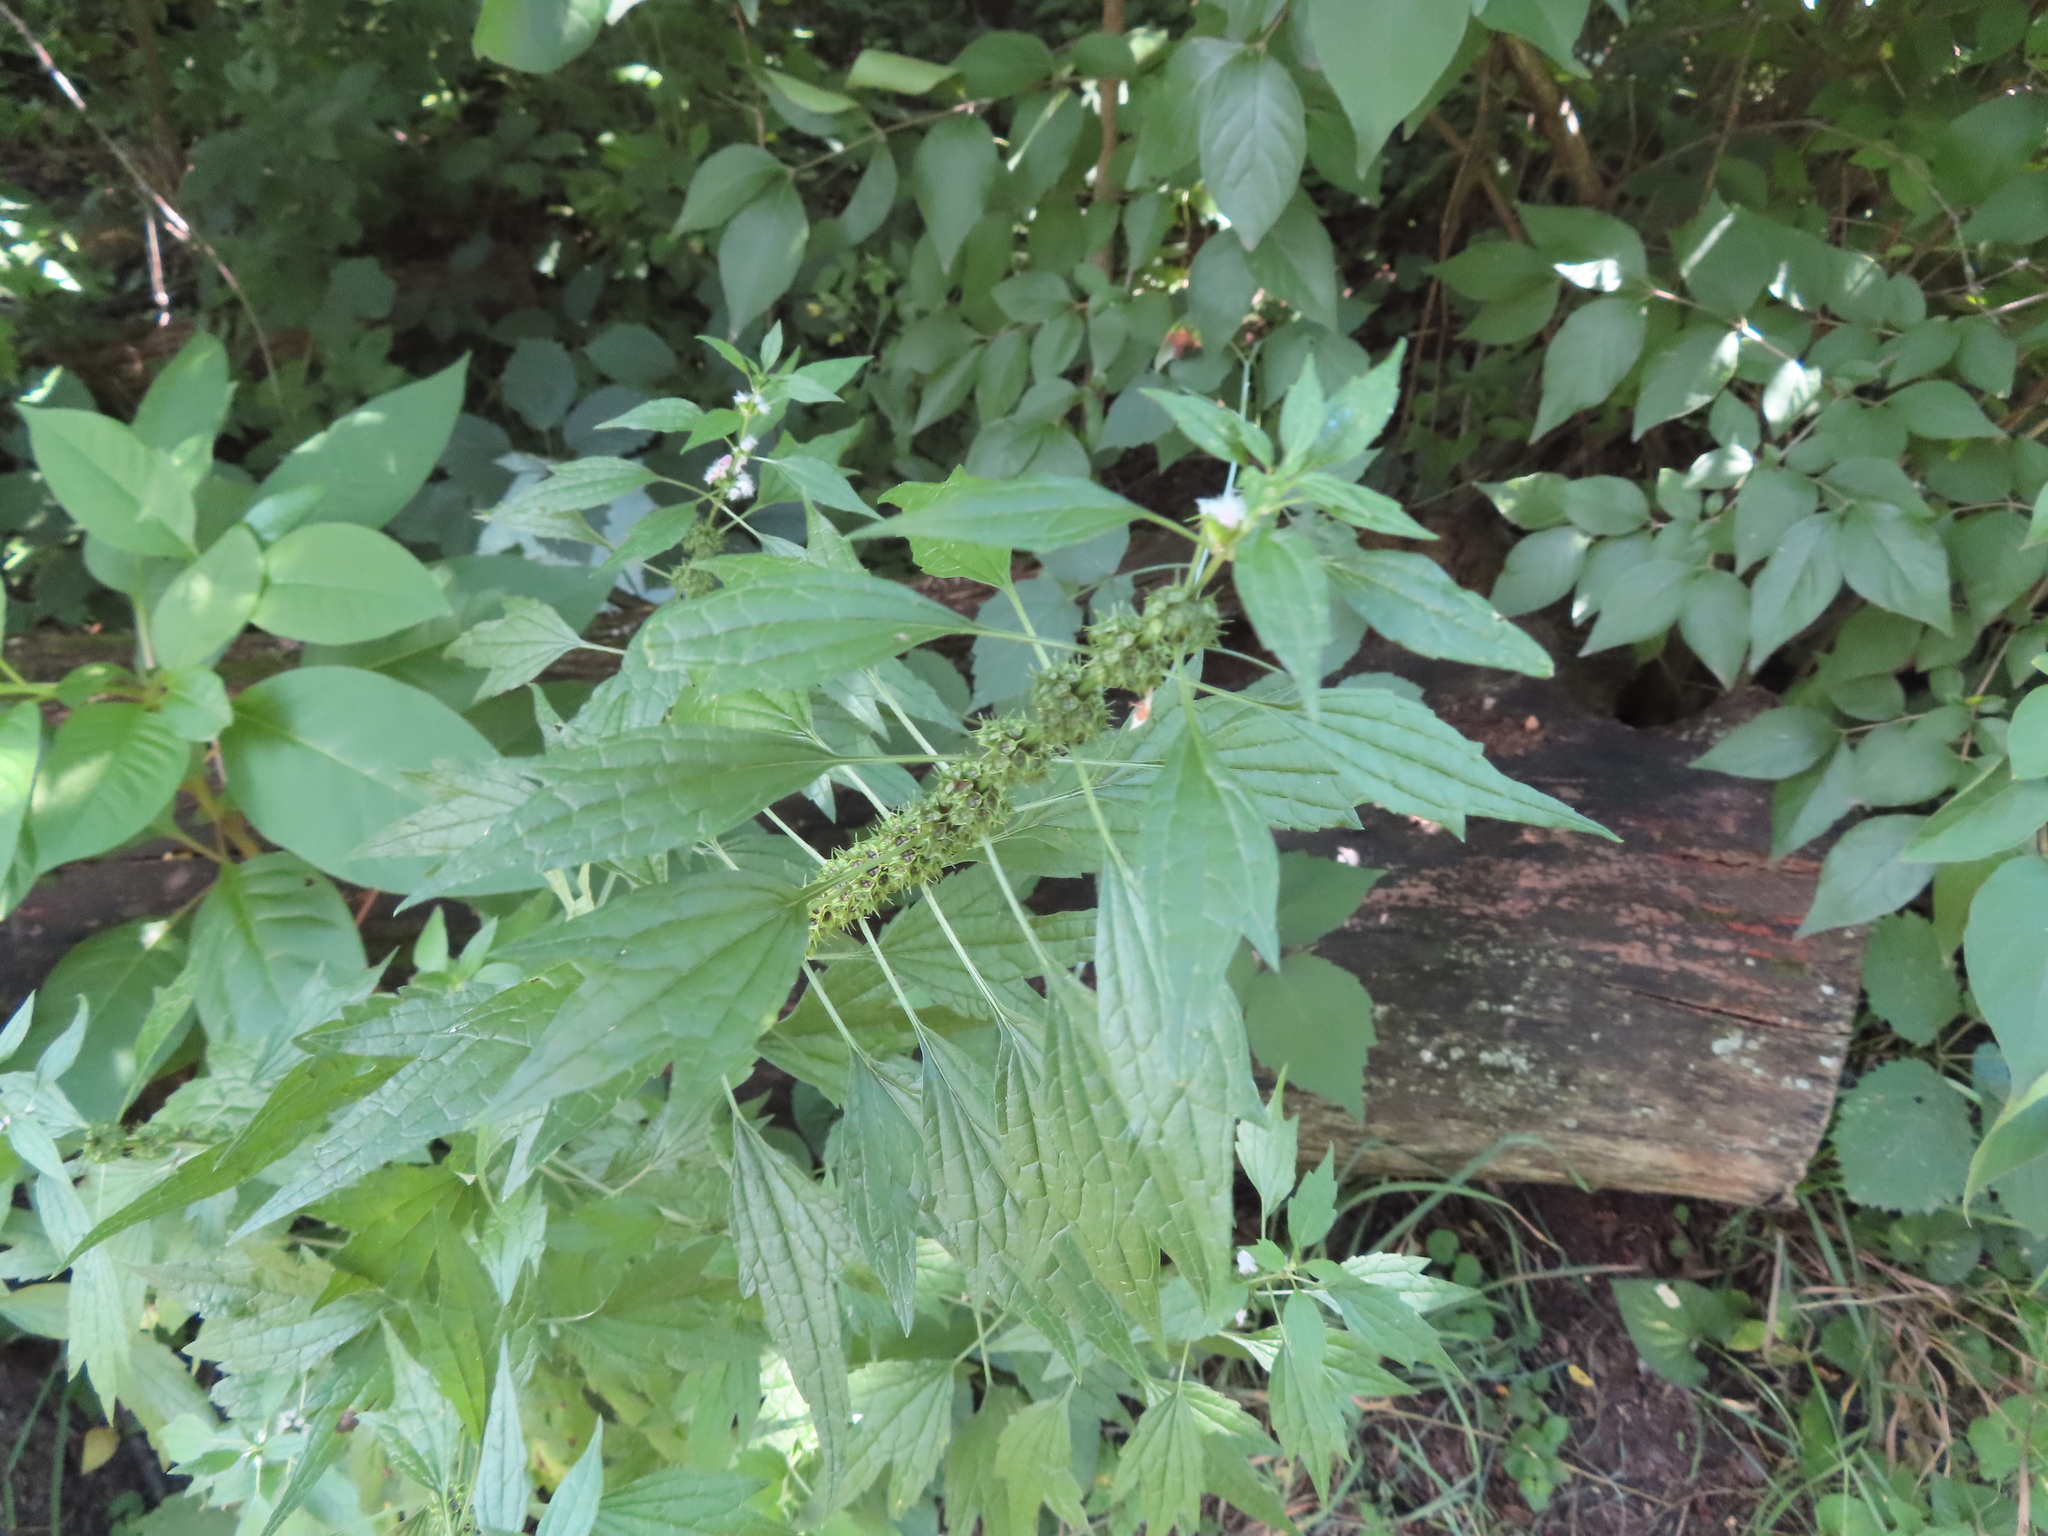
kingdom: Plantae
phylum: Tracheophyta
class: Magnoliopsida
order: Lamiales
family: Lamiaceae
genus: Leonurus
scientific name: Leonurus cardiaca
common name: Motherwort
